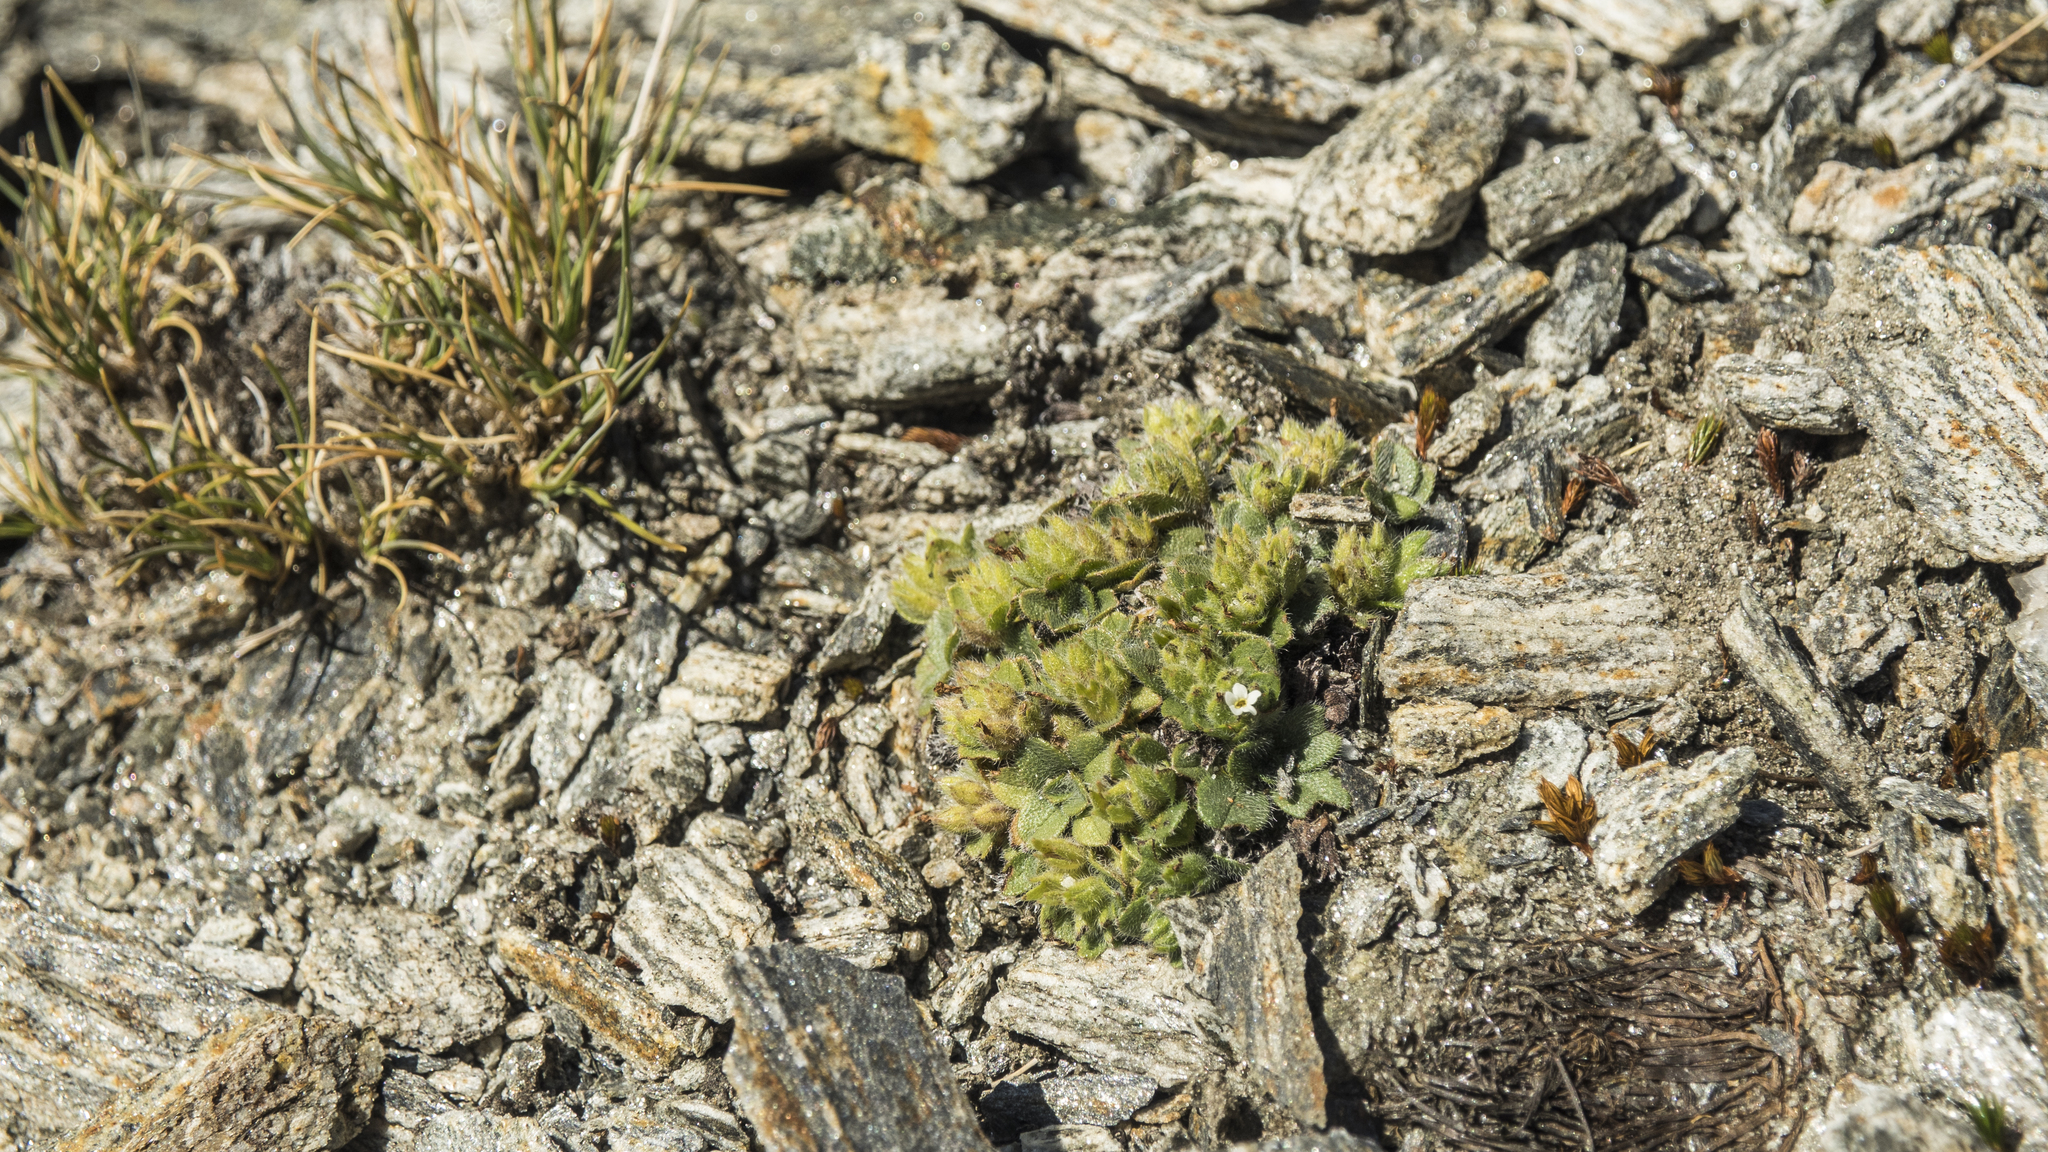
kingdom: Plantae
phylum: Tracheophyta
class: Magnoliopsida
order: Boraginales
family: Boraginaceae
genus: Myosotis
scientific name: Myosotis antarctica
